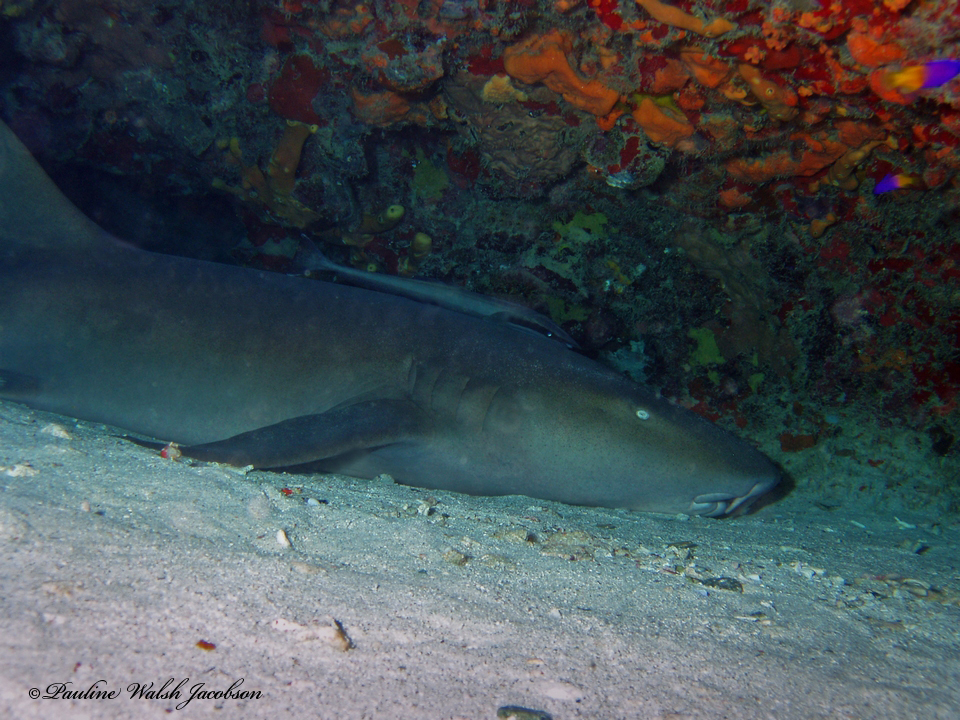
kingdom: Animalia
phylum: Chordata
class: Elasmobranchii
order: Orectolobiformes
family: Ginglymostomatidae
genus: Ginglymostoma
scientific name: Ginglymostoma cirratum
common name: Nurse shark
